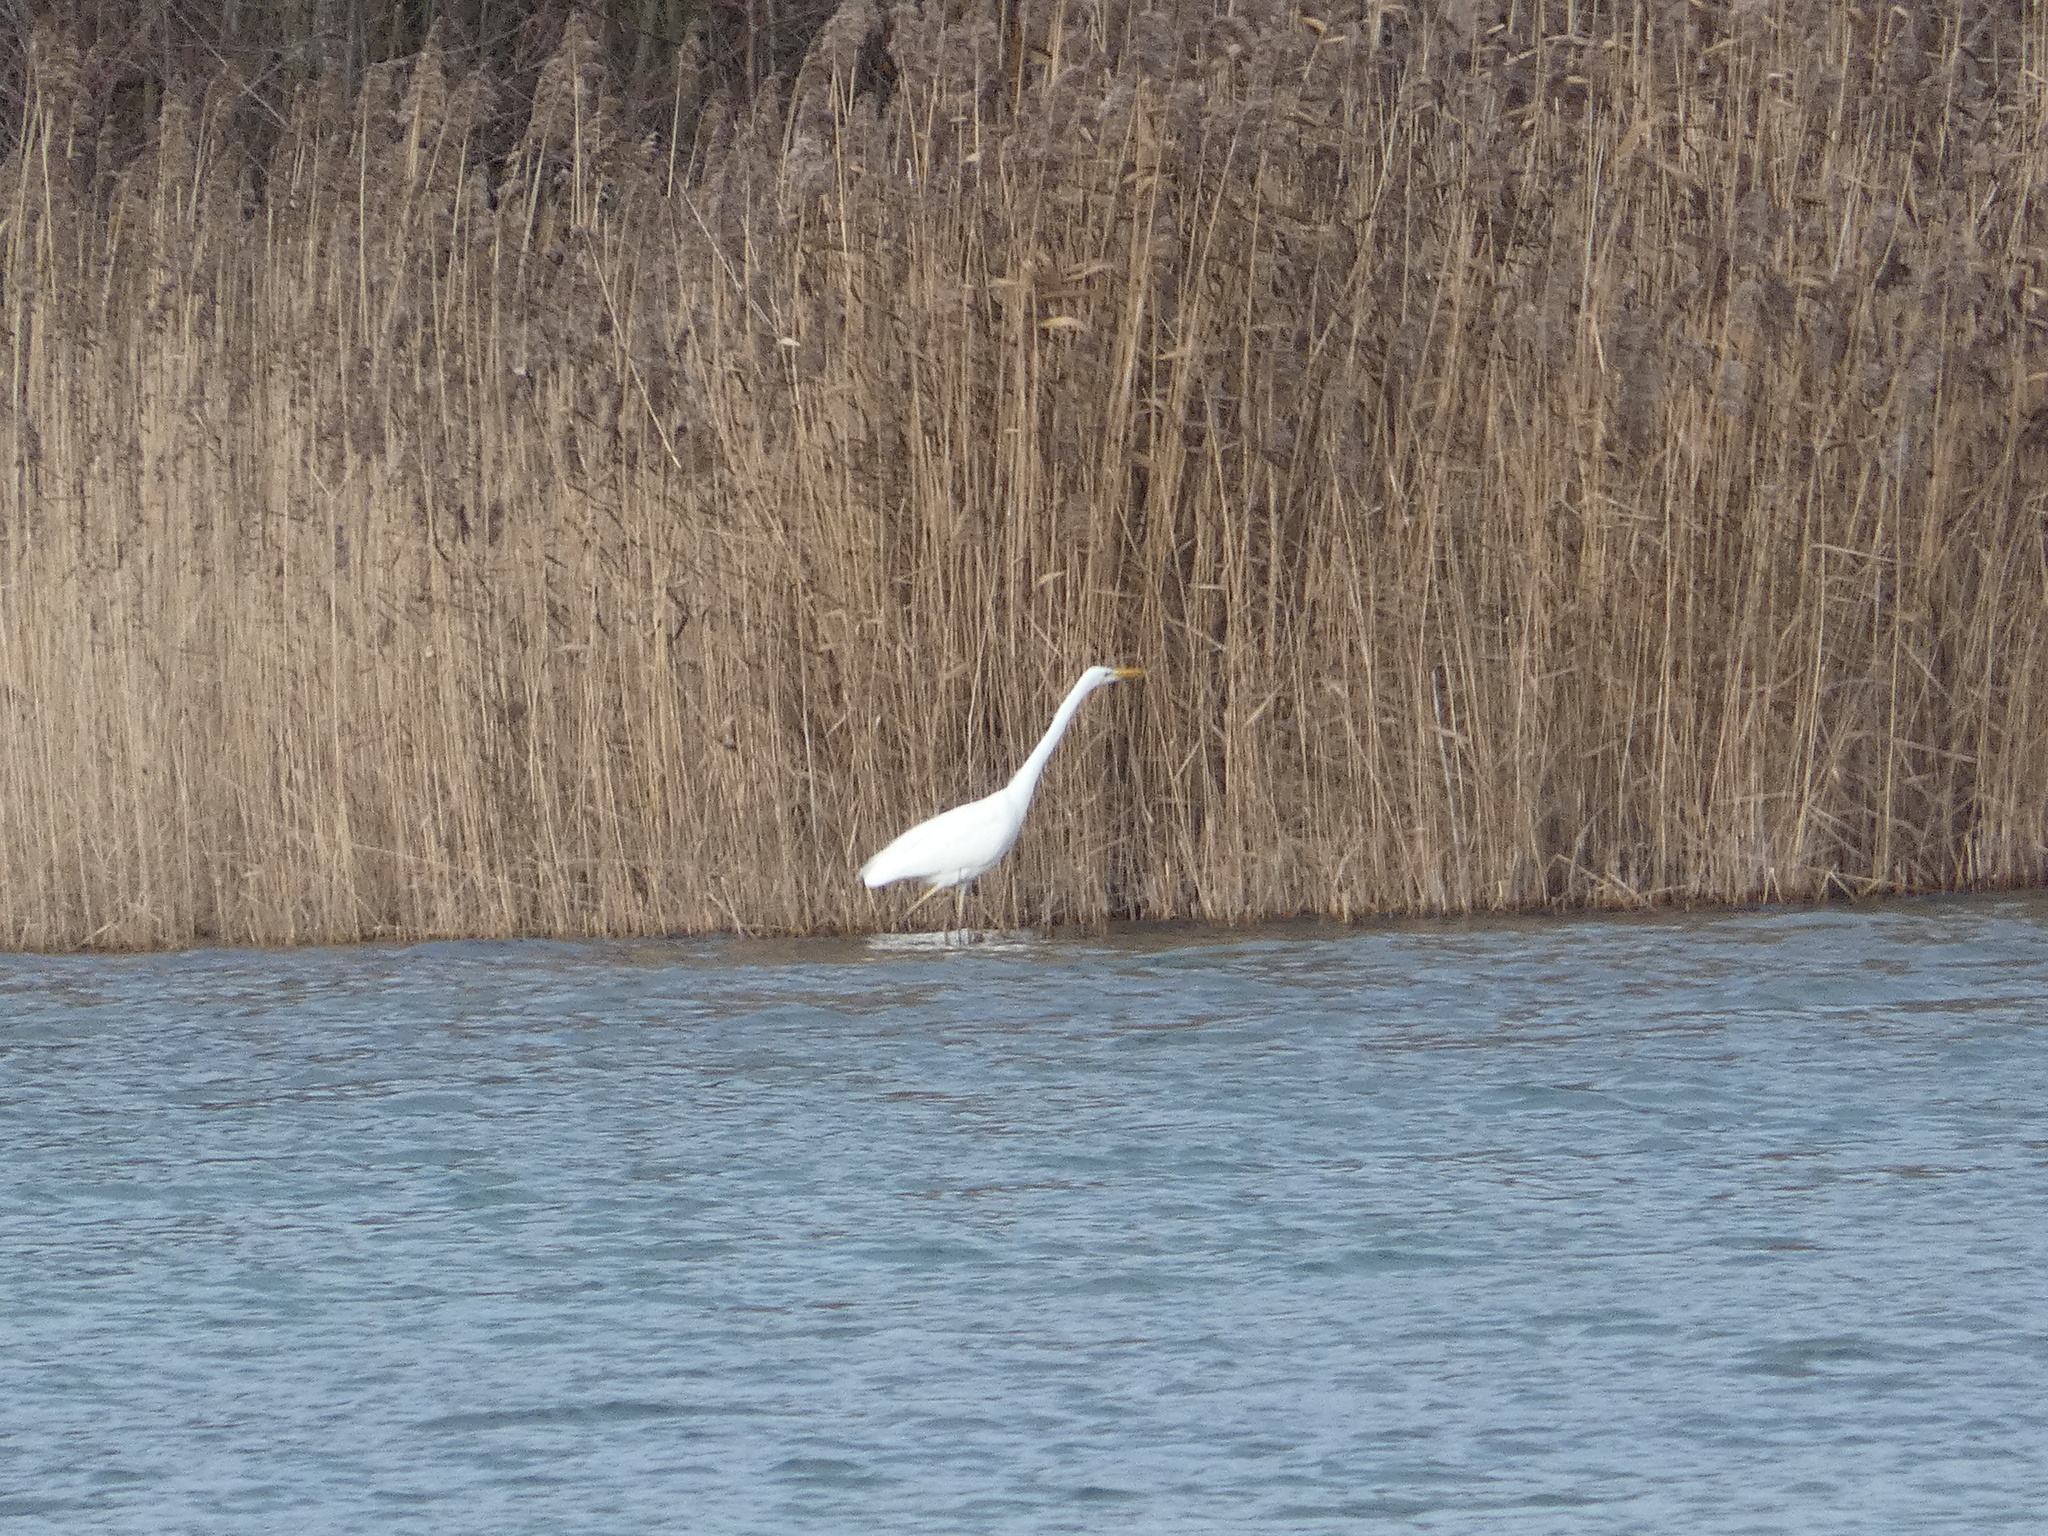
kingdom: Animalia
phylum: Chordata
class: Aves
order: Pelecaniformes
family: Ardeidae
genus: Ardea
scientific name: Ardea alba
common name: Great egret
